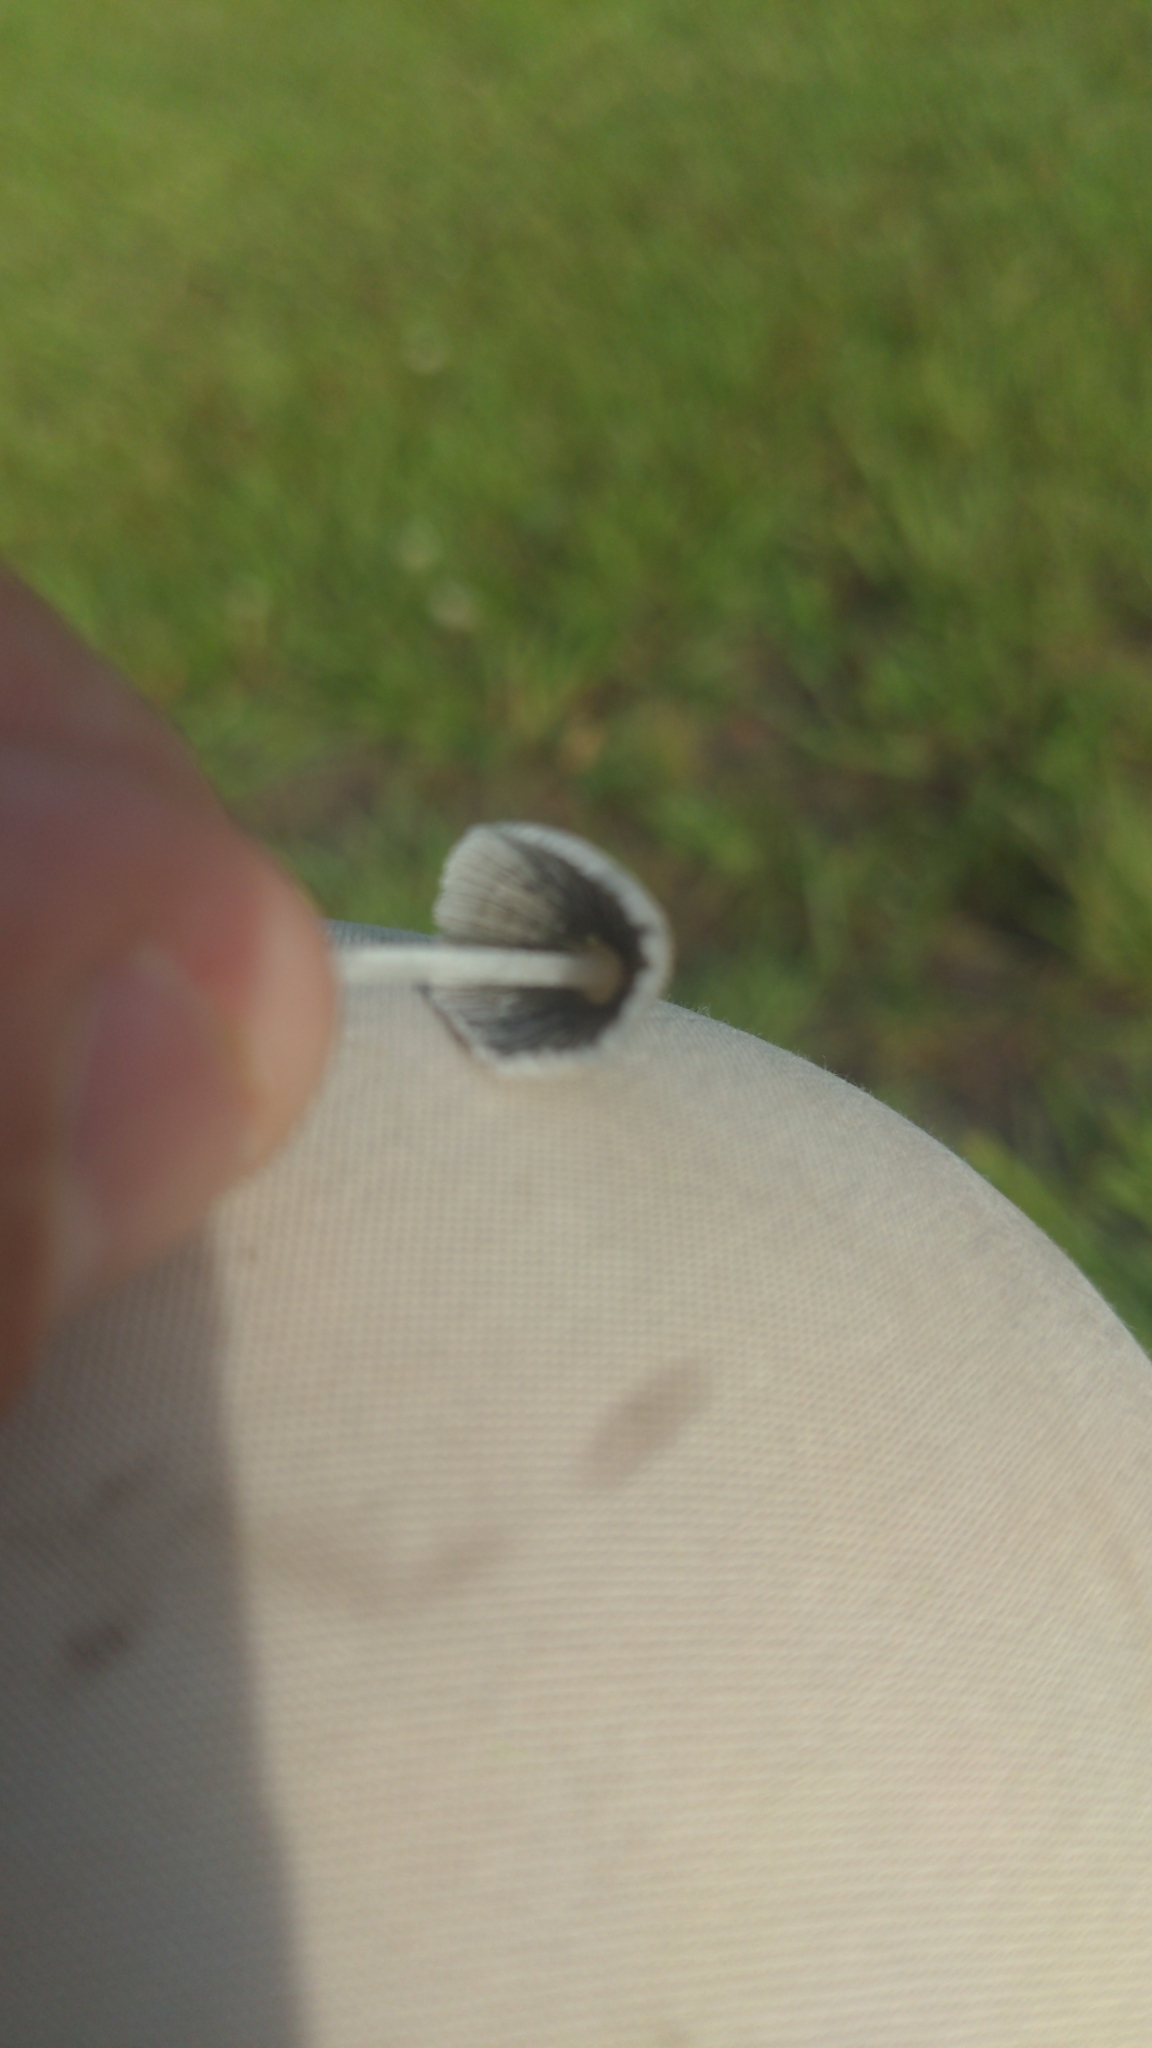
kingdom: Fungi
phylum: Basidiomycota
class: Agaricomycetes
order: Agaricales
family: Psathyrellaceae
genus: Parasola
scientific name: Parasola plicatilis
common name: Pleated inkcap
